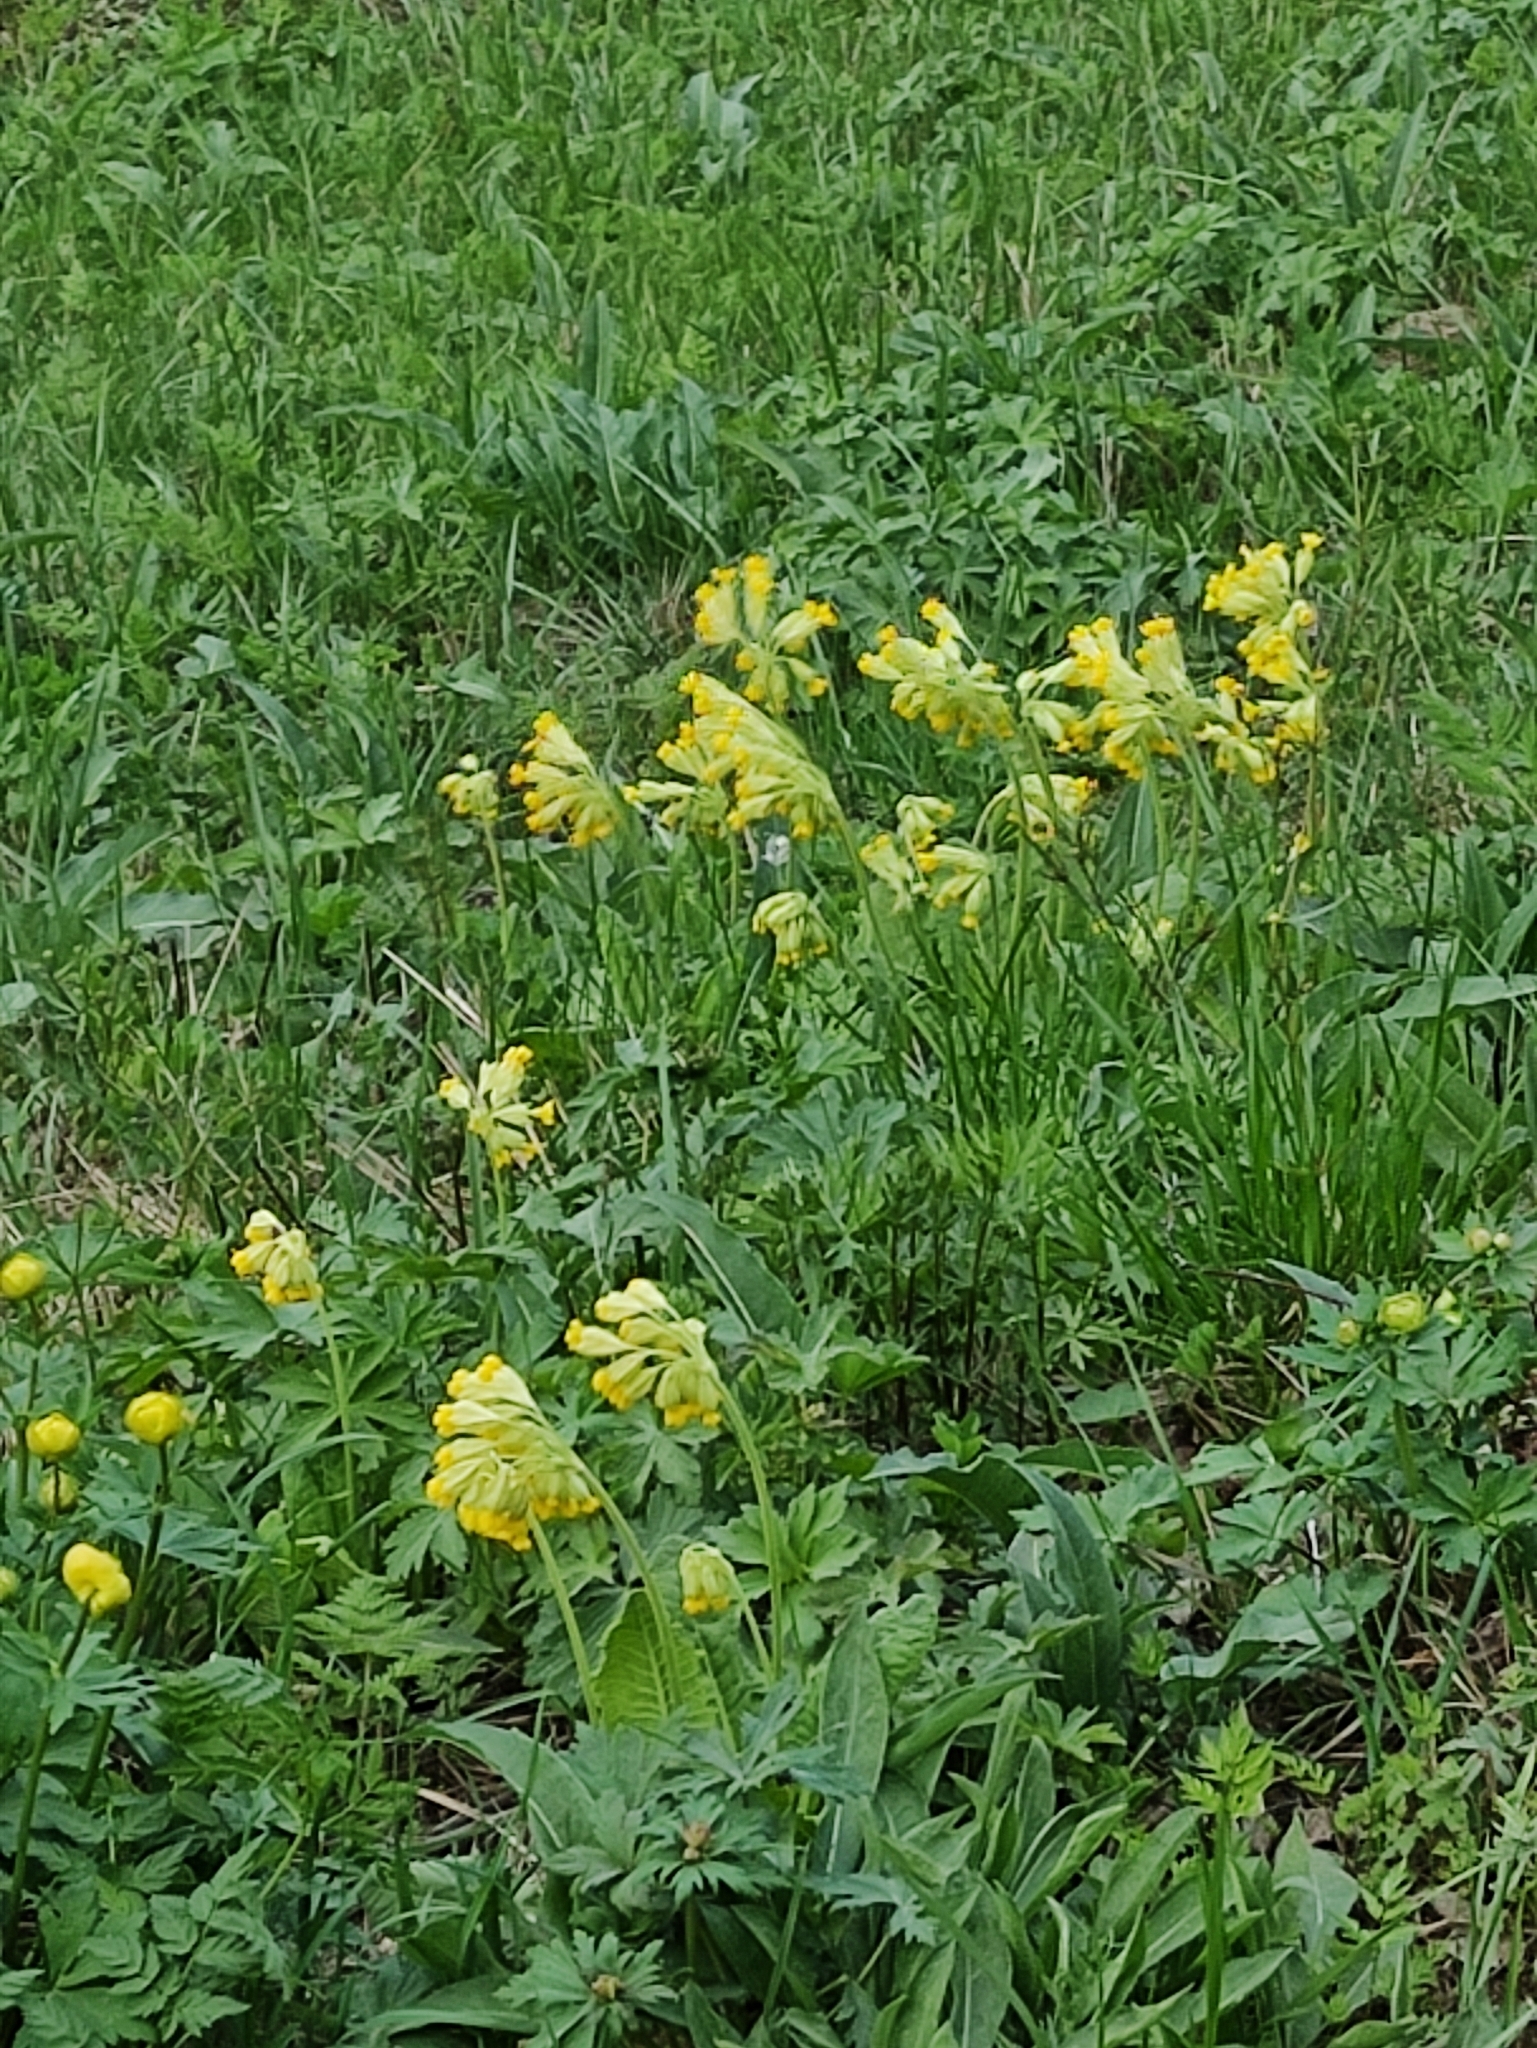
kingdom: Plantae
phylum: Tracheophyta
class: Magnoliopsida
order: Ericales
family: Primulaceae
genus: Primula
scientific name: Primula veris
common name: Cowslip
